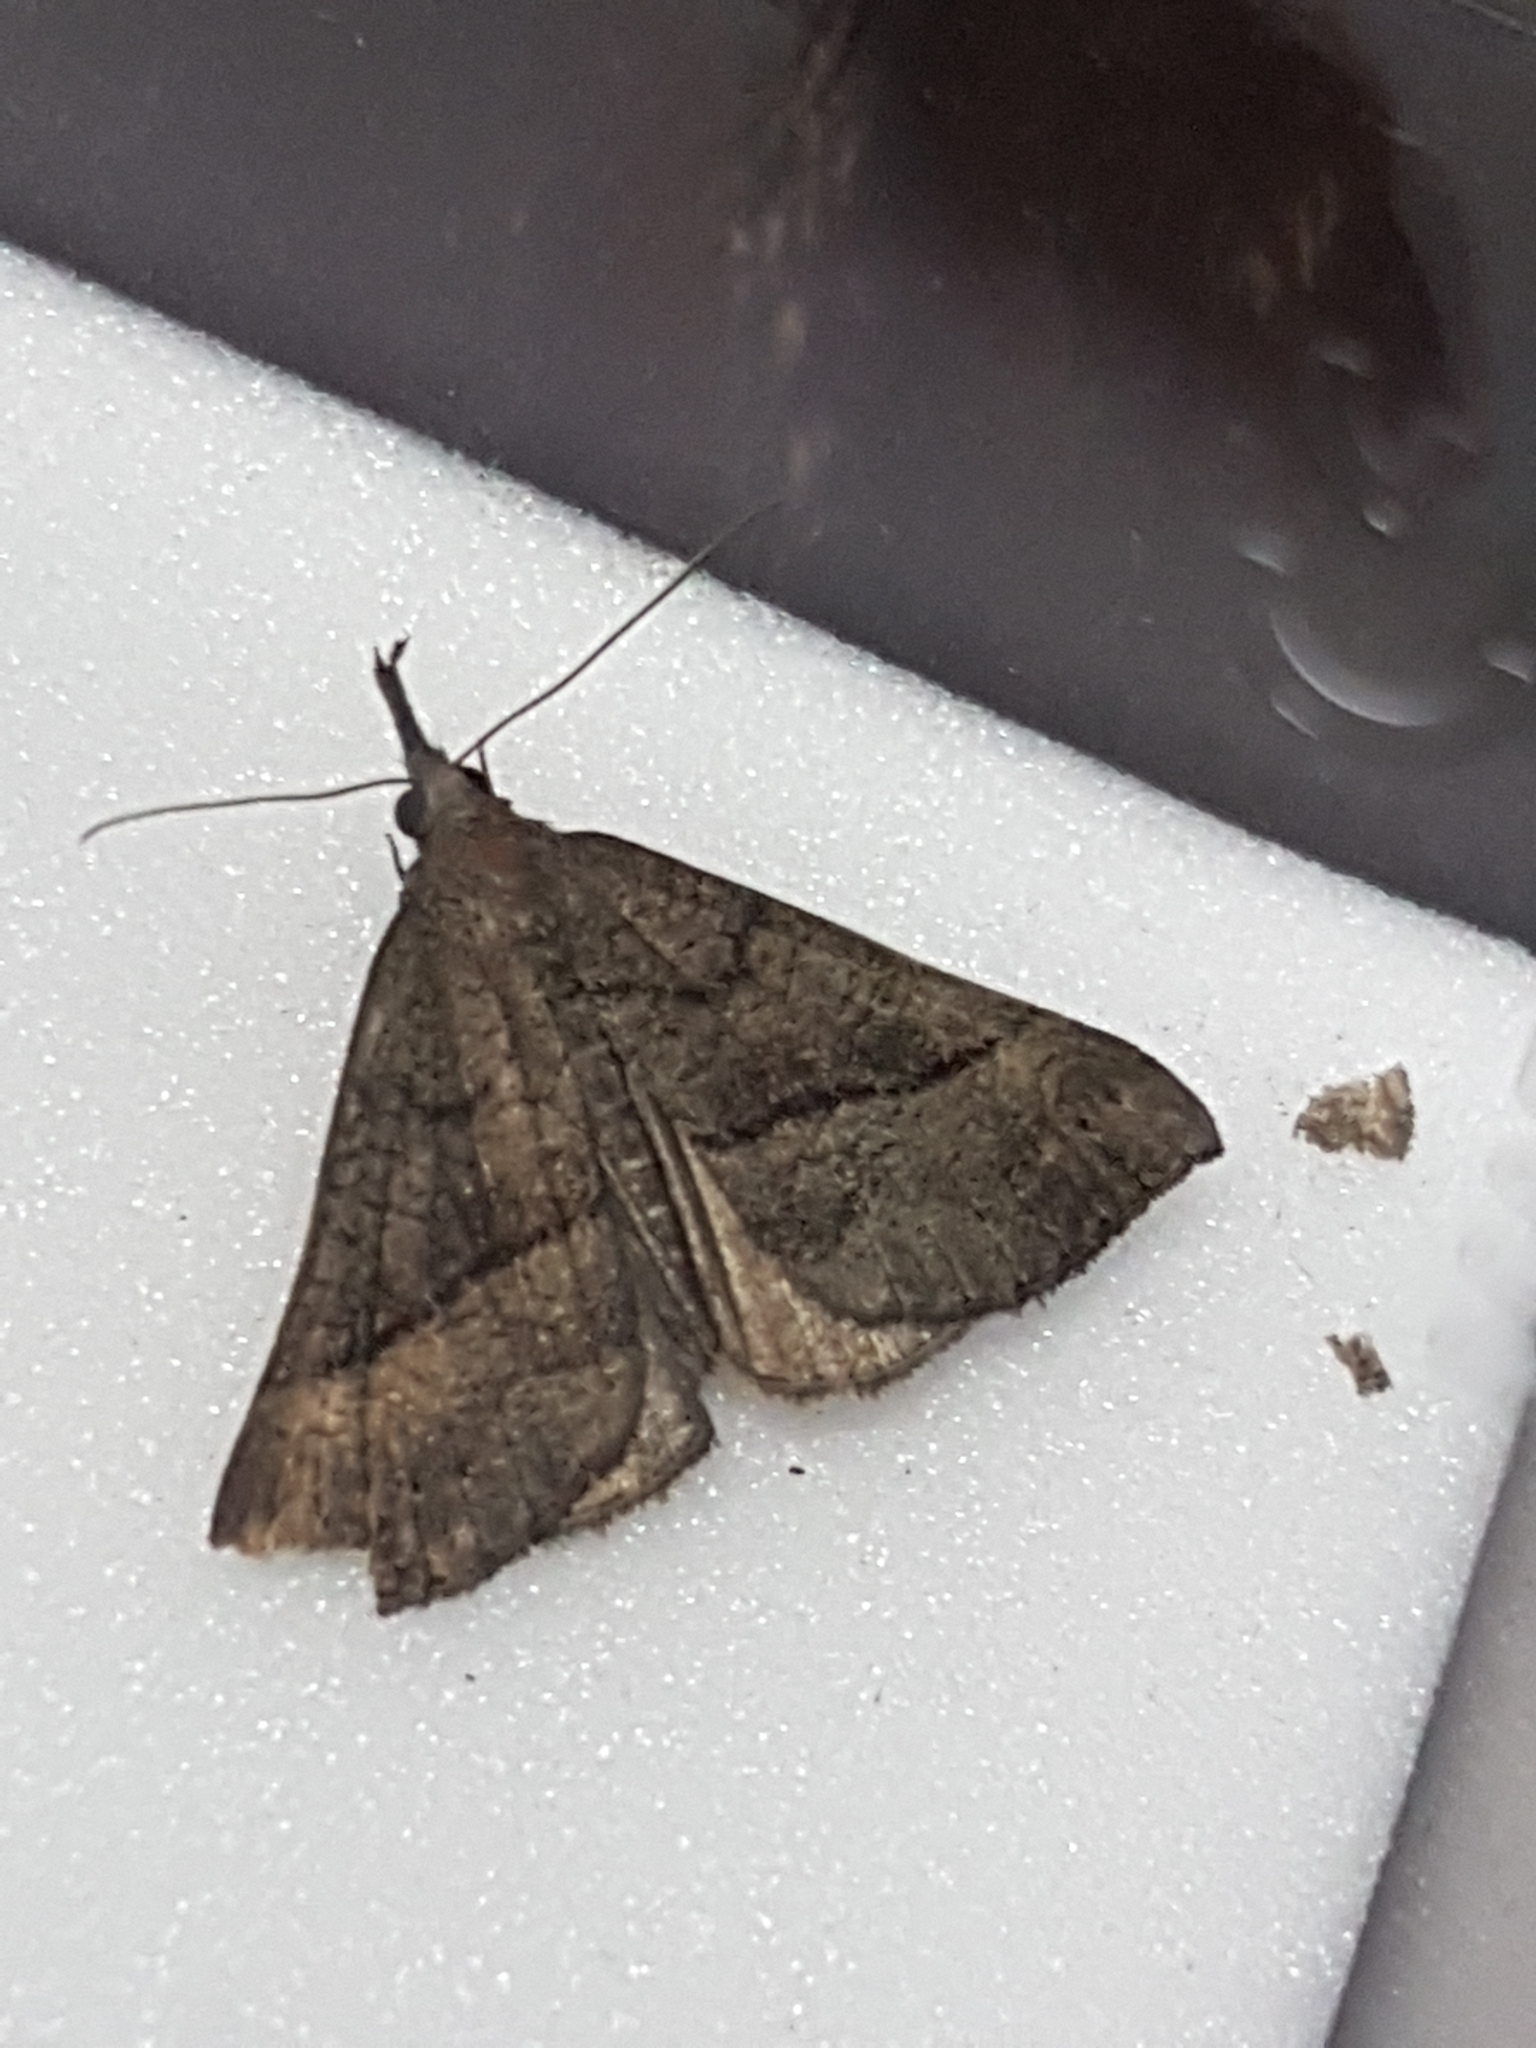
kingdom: Animalia
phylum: Arthropoda
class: Insecta
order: Lepidoptera
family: Erebidae
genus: Hypena
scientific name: Hypena proboscidalis
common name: Snout
